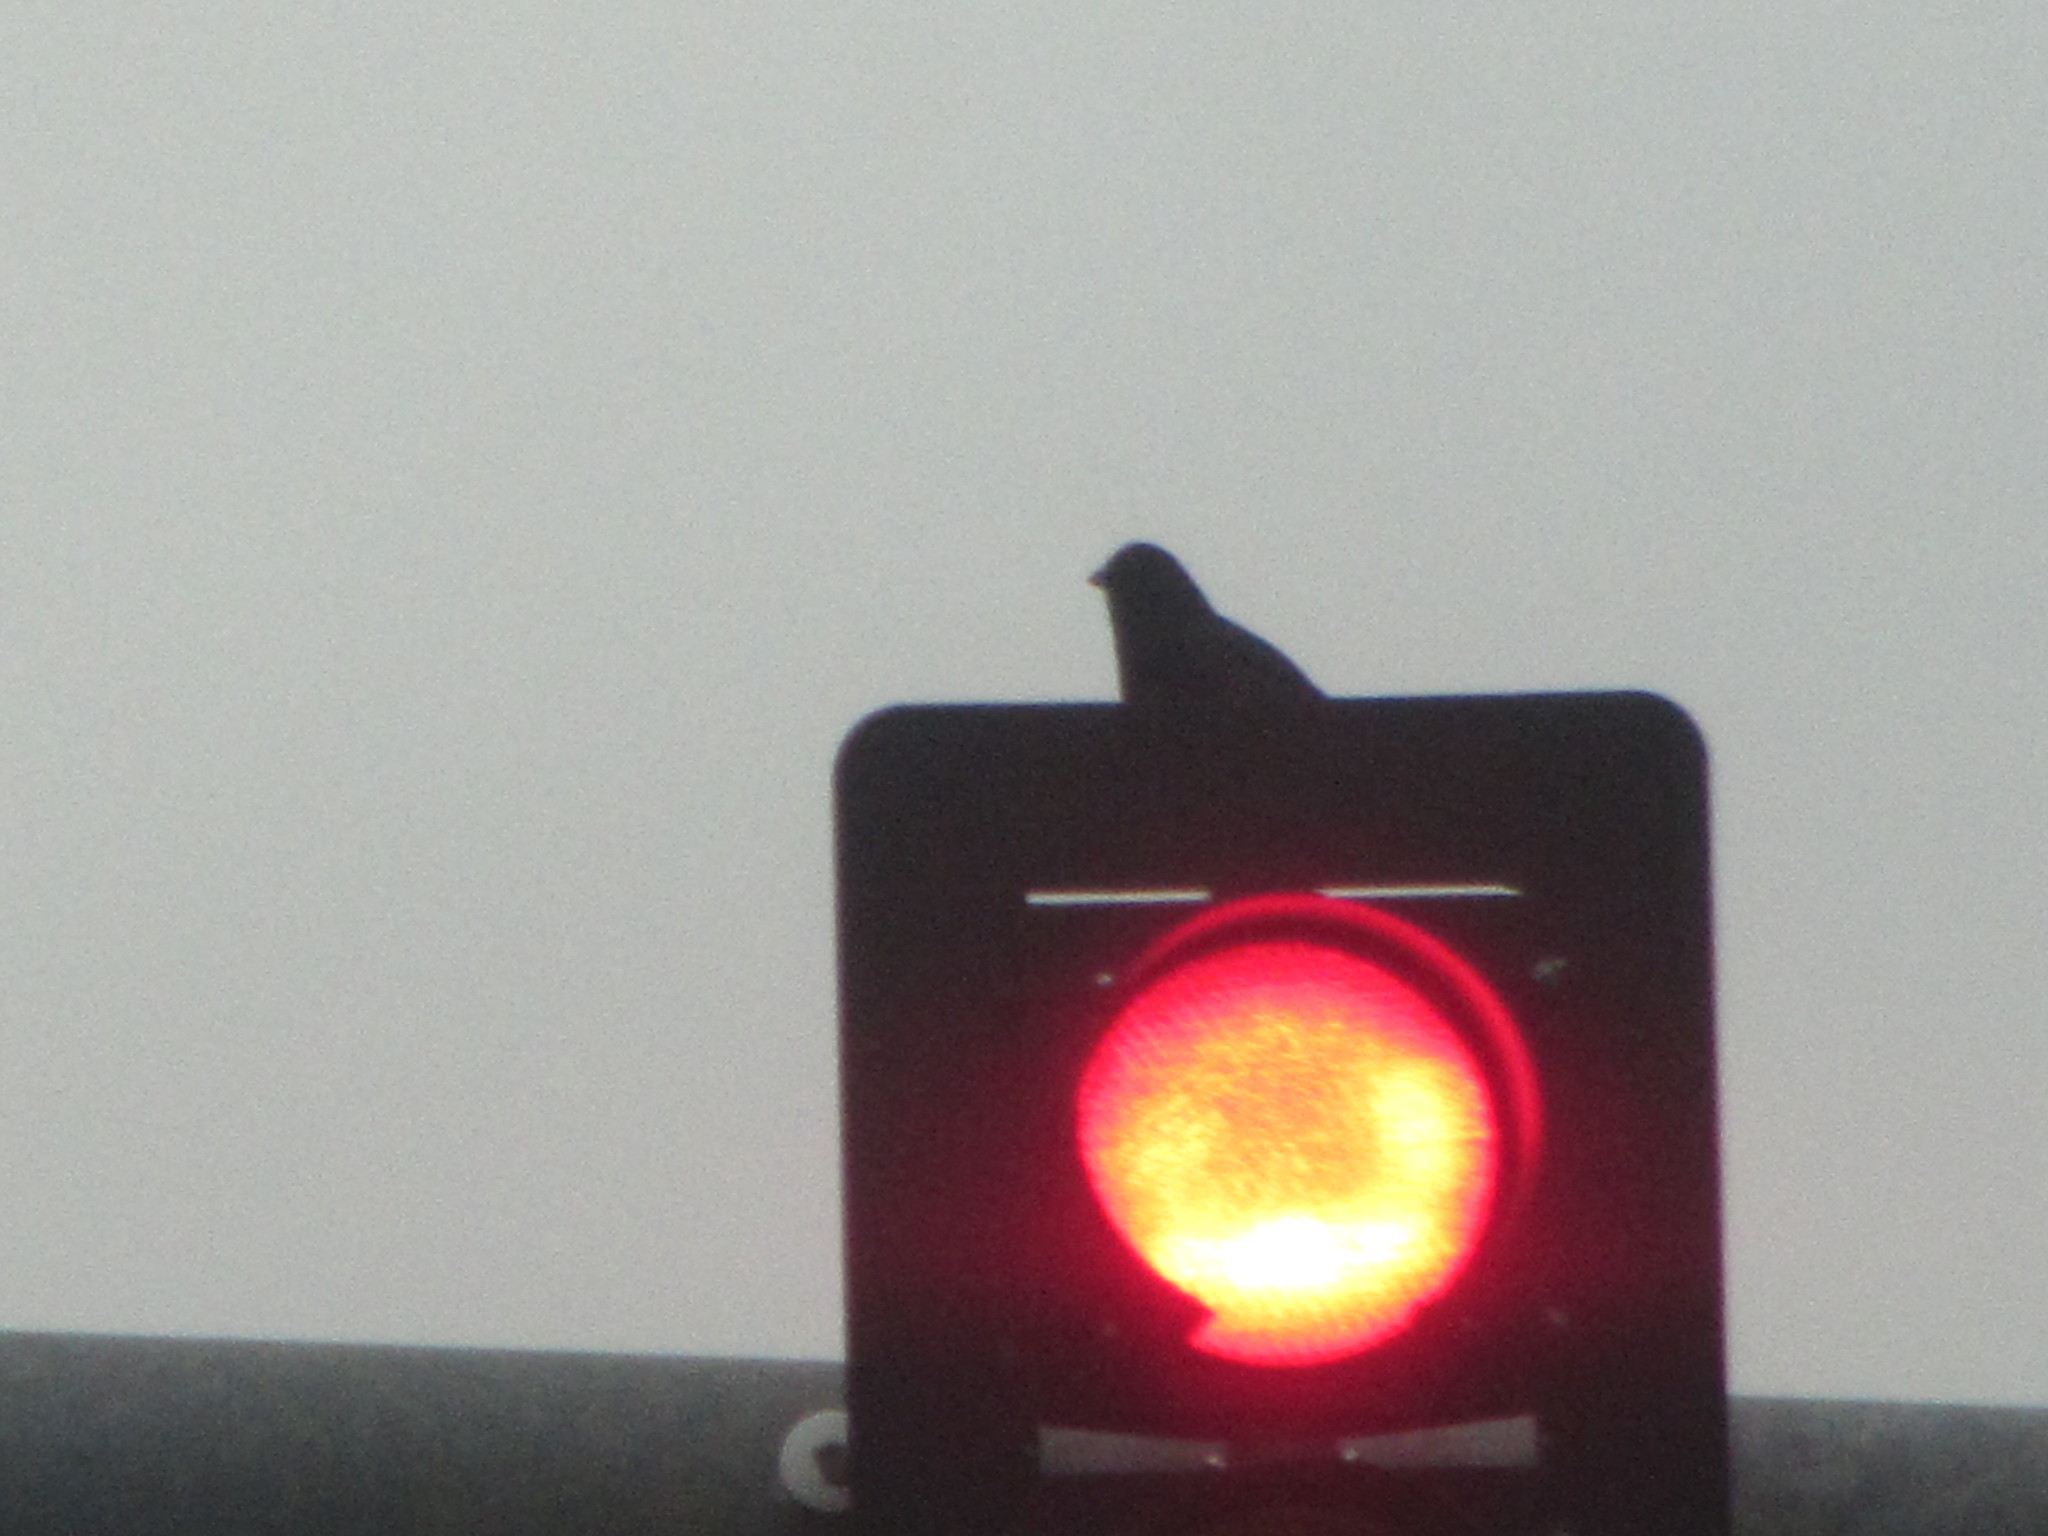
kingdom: Animalia
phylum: Chordata
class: Aves
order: Passeriformes
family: Corvidae
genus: Corvus
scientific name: Corvus brachyrhynchos
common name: American crow
